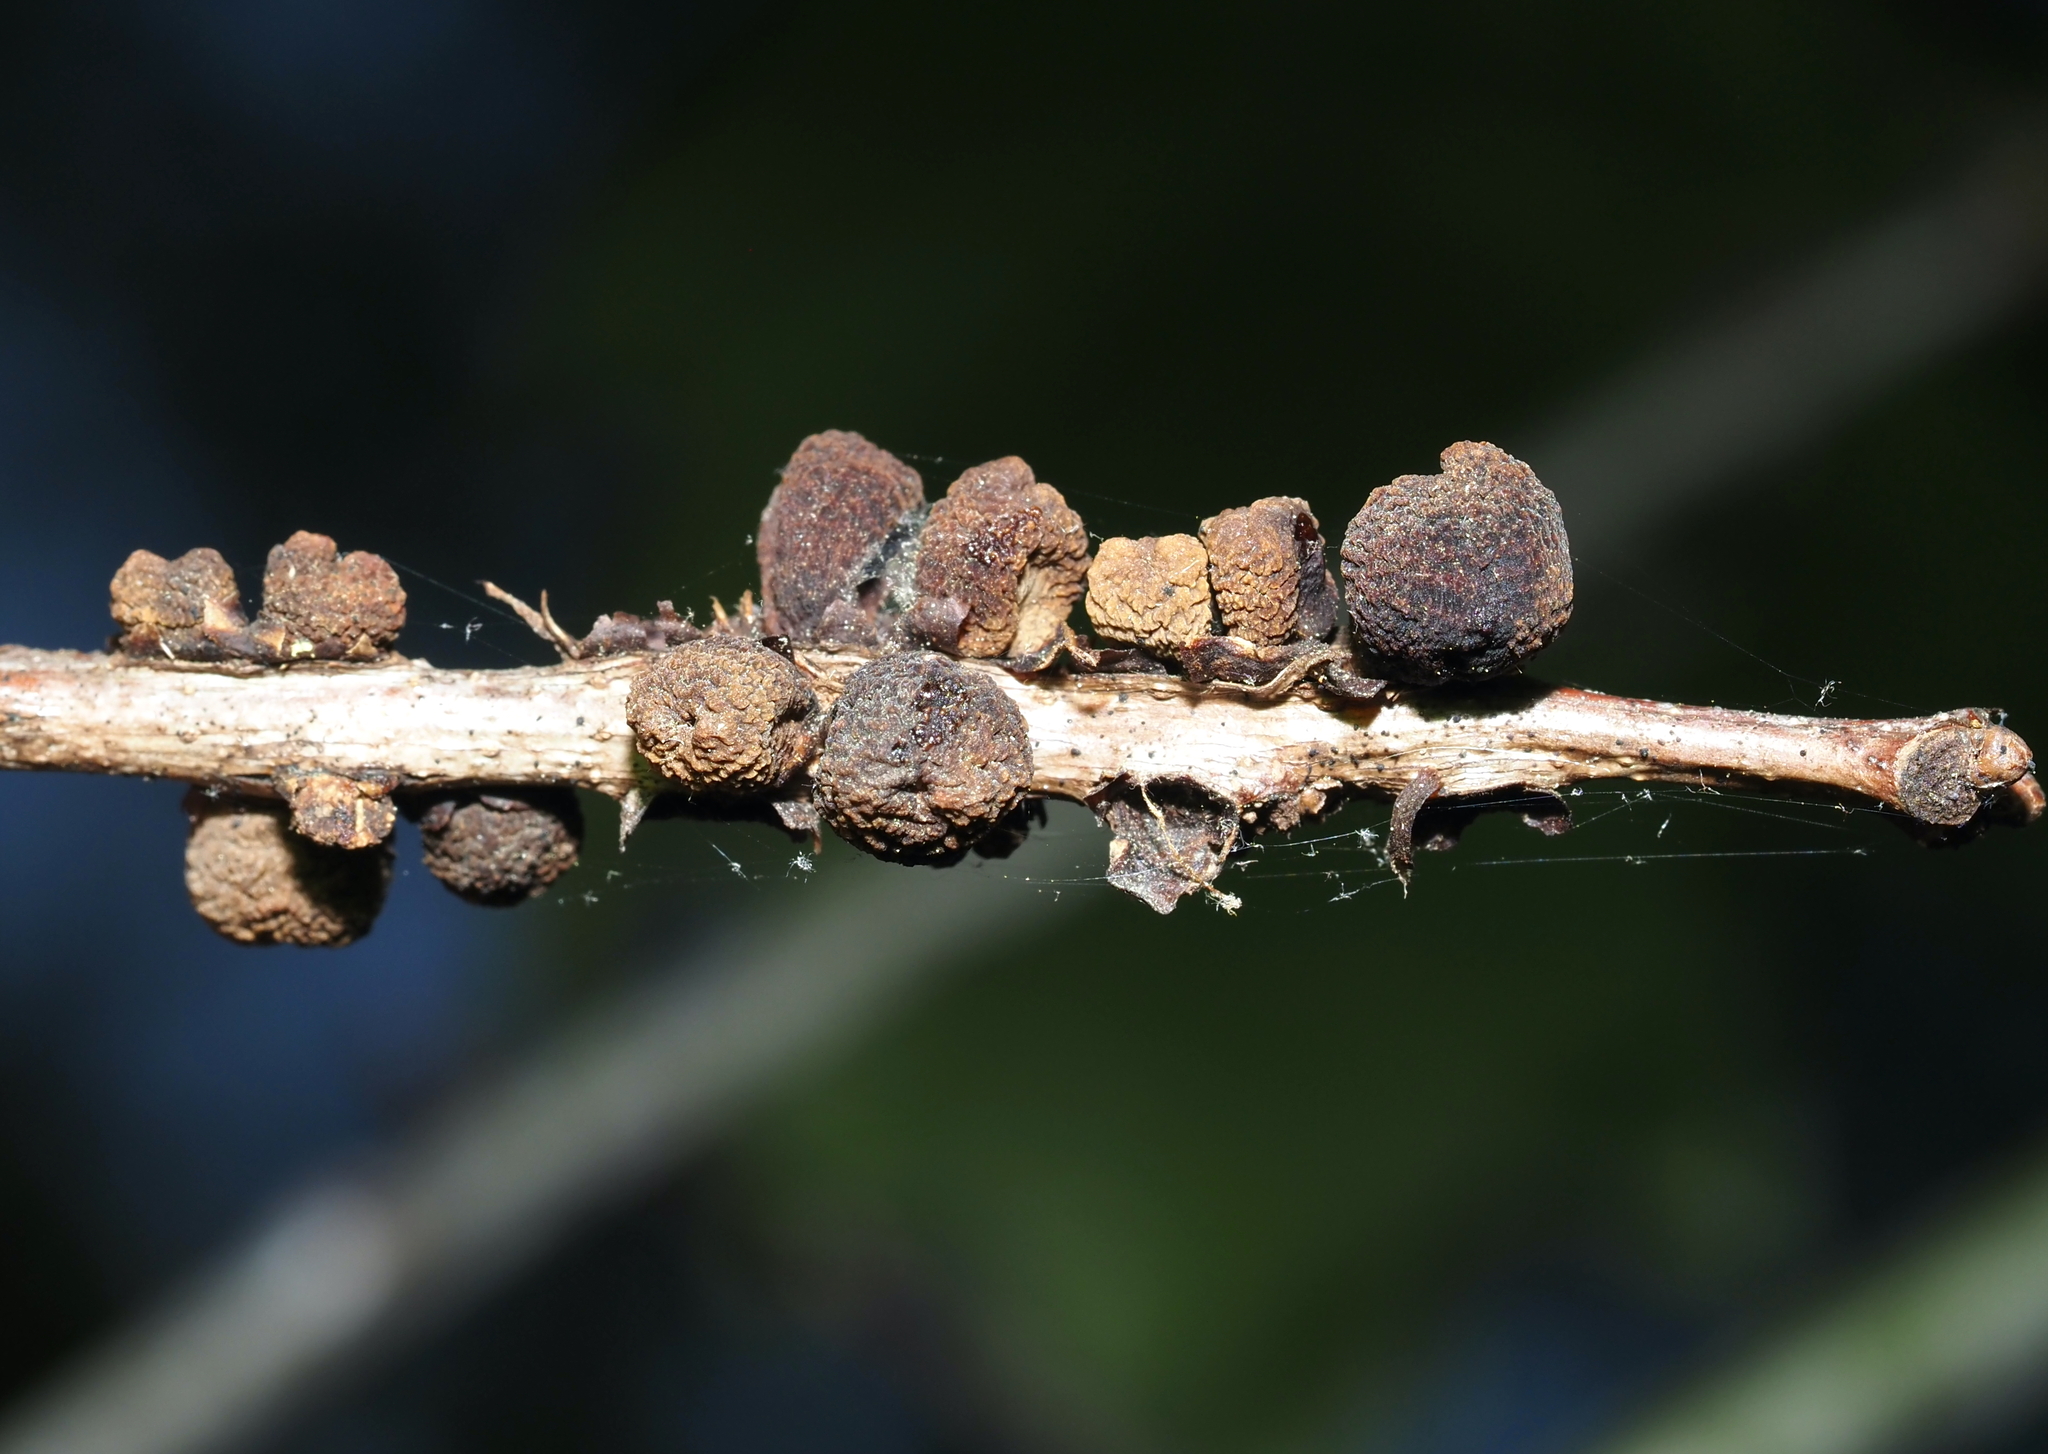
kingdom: Animalia
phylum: Arthropoda
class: Insecta
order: Hymenoptera
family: Cynipidae
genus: Kokkocynips
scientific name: Kokkocynips imbricariae
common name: Banded bullet gall wasp
